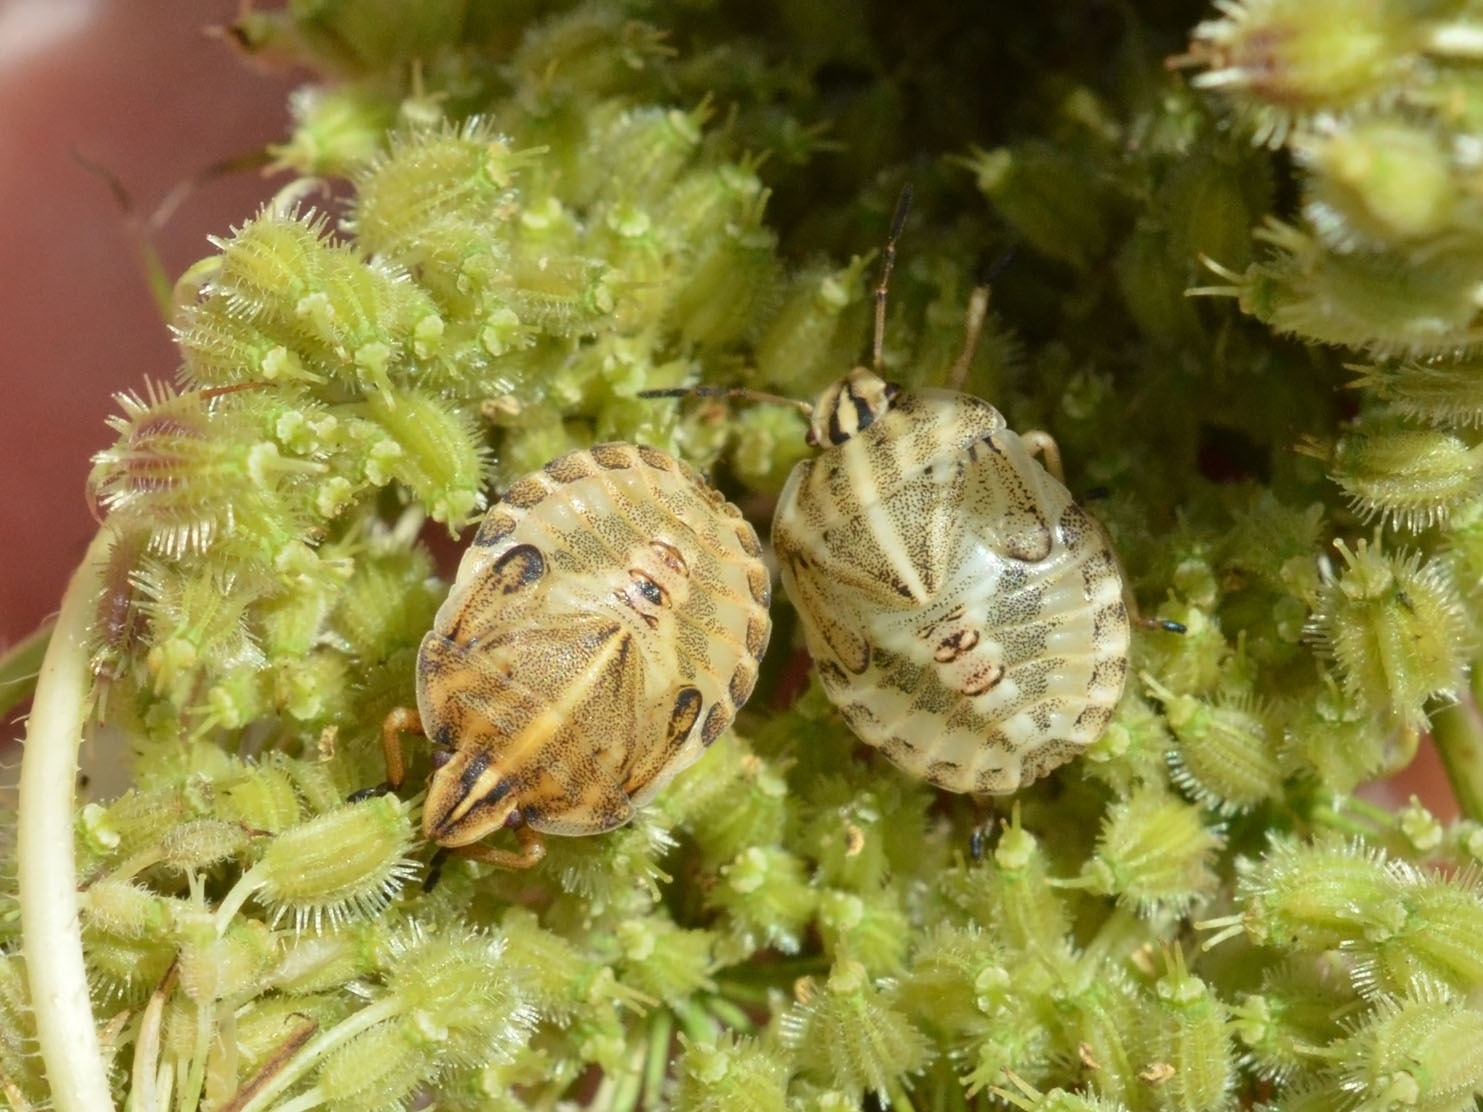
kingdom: Animalia
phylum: Arthropoda
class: Insecta
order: Hemiptera
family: Pentatomidae
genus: Graphosoma
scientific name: Graphosoma italicum
